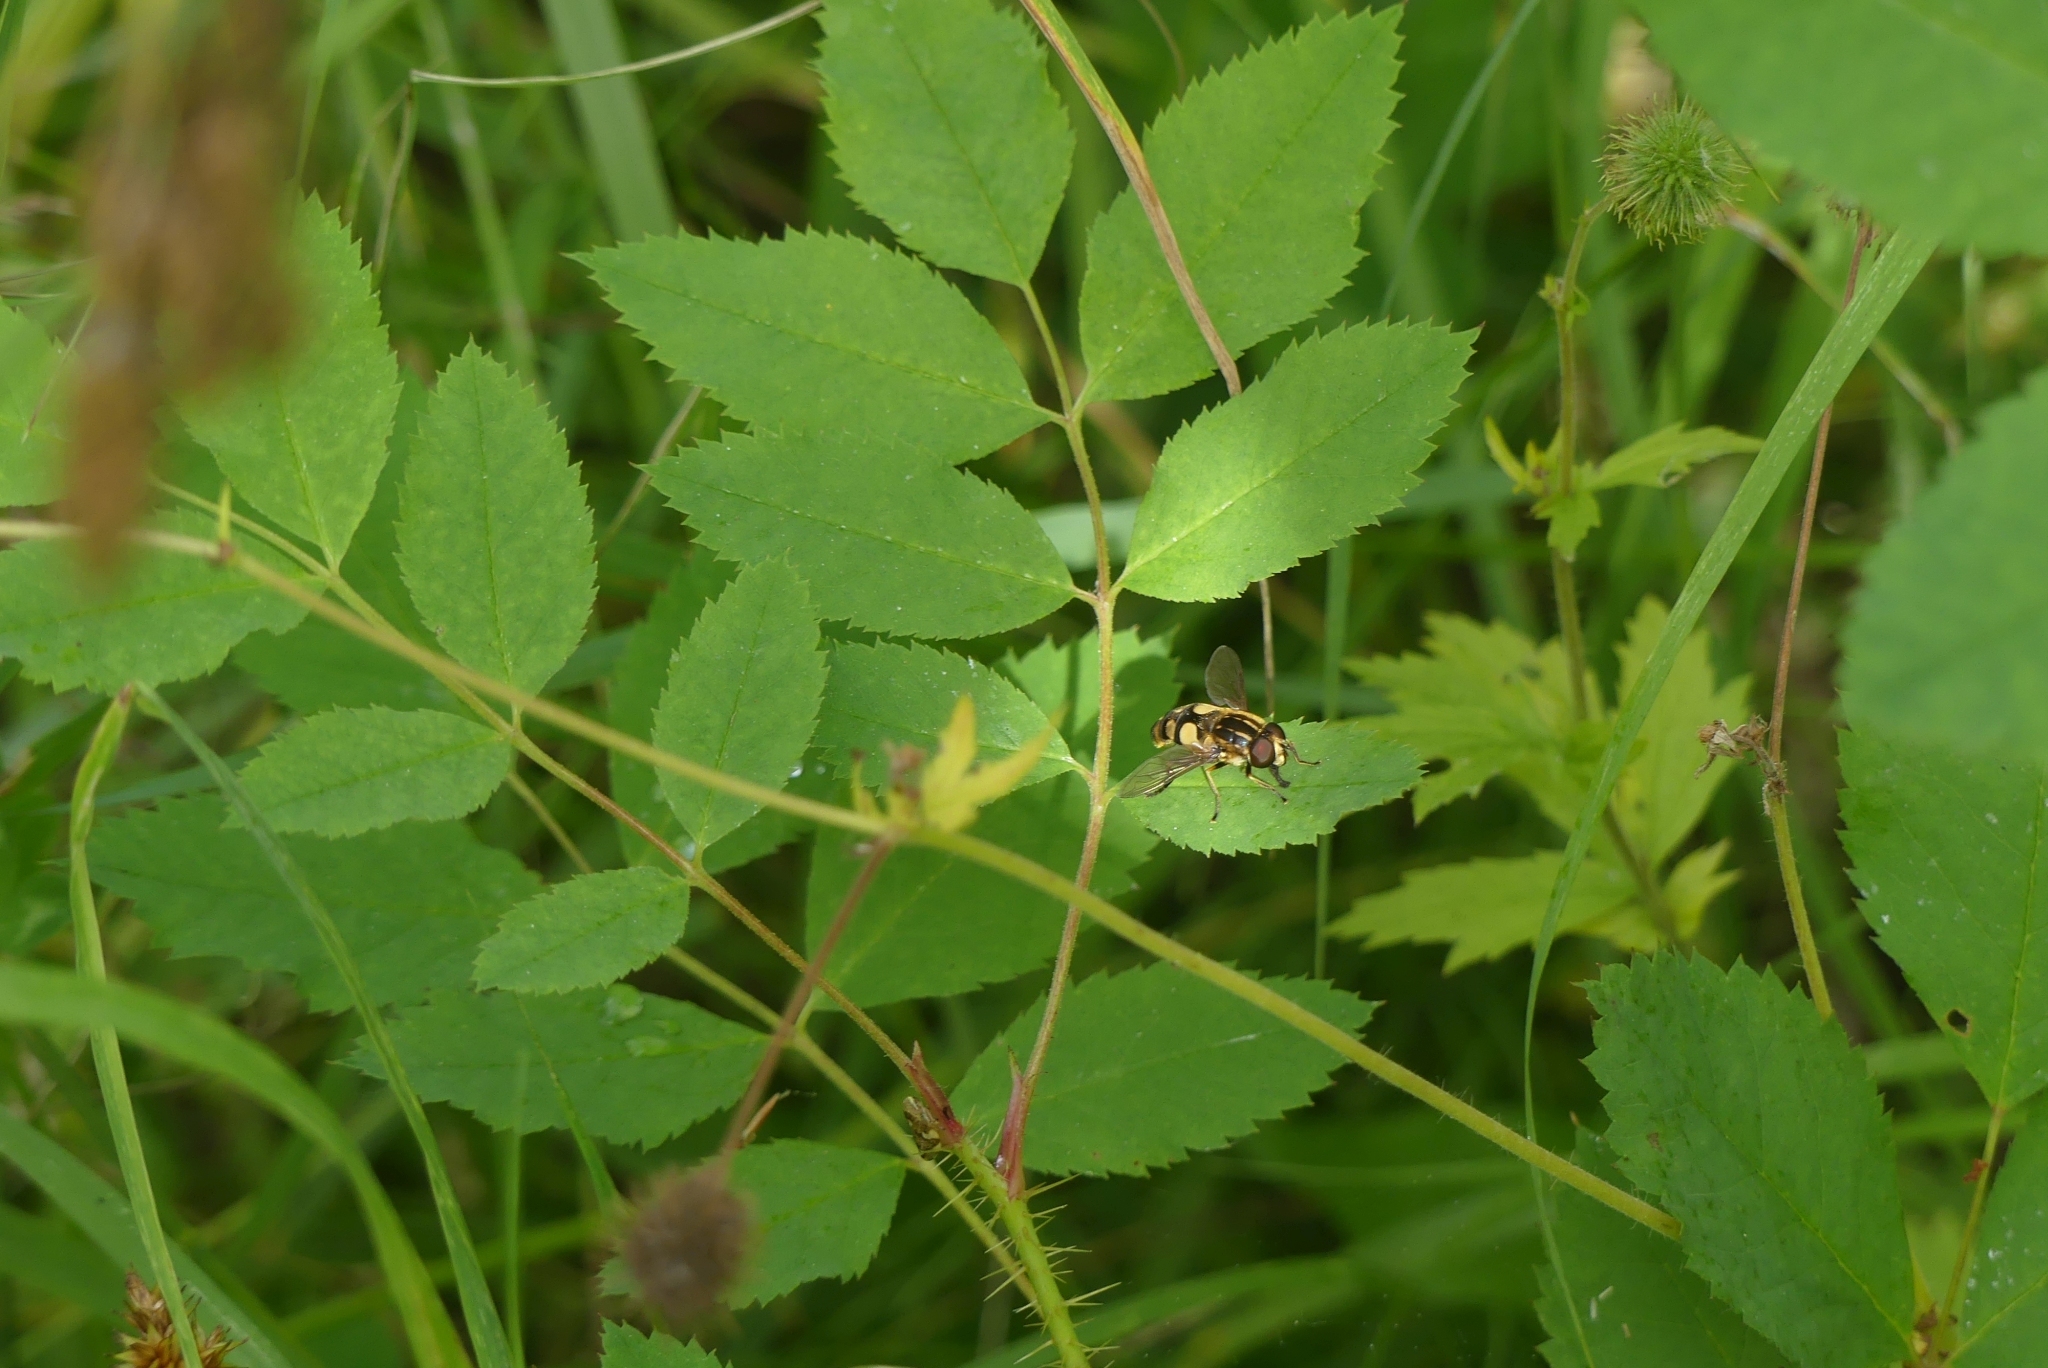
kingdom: Animalia
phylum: Arthropoda
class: Insecta
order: Diptera
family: Syrphidae
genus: Helophilus
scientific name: Helophilus obscurus
